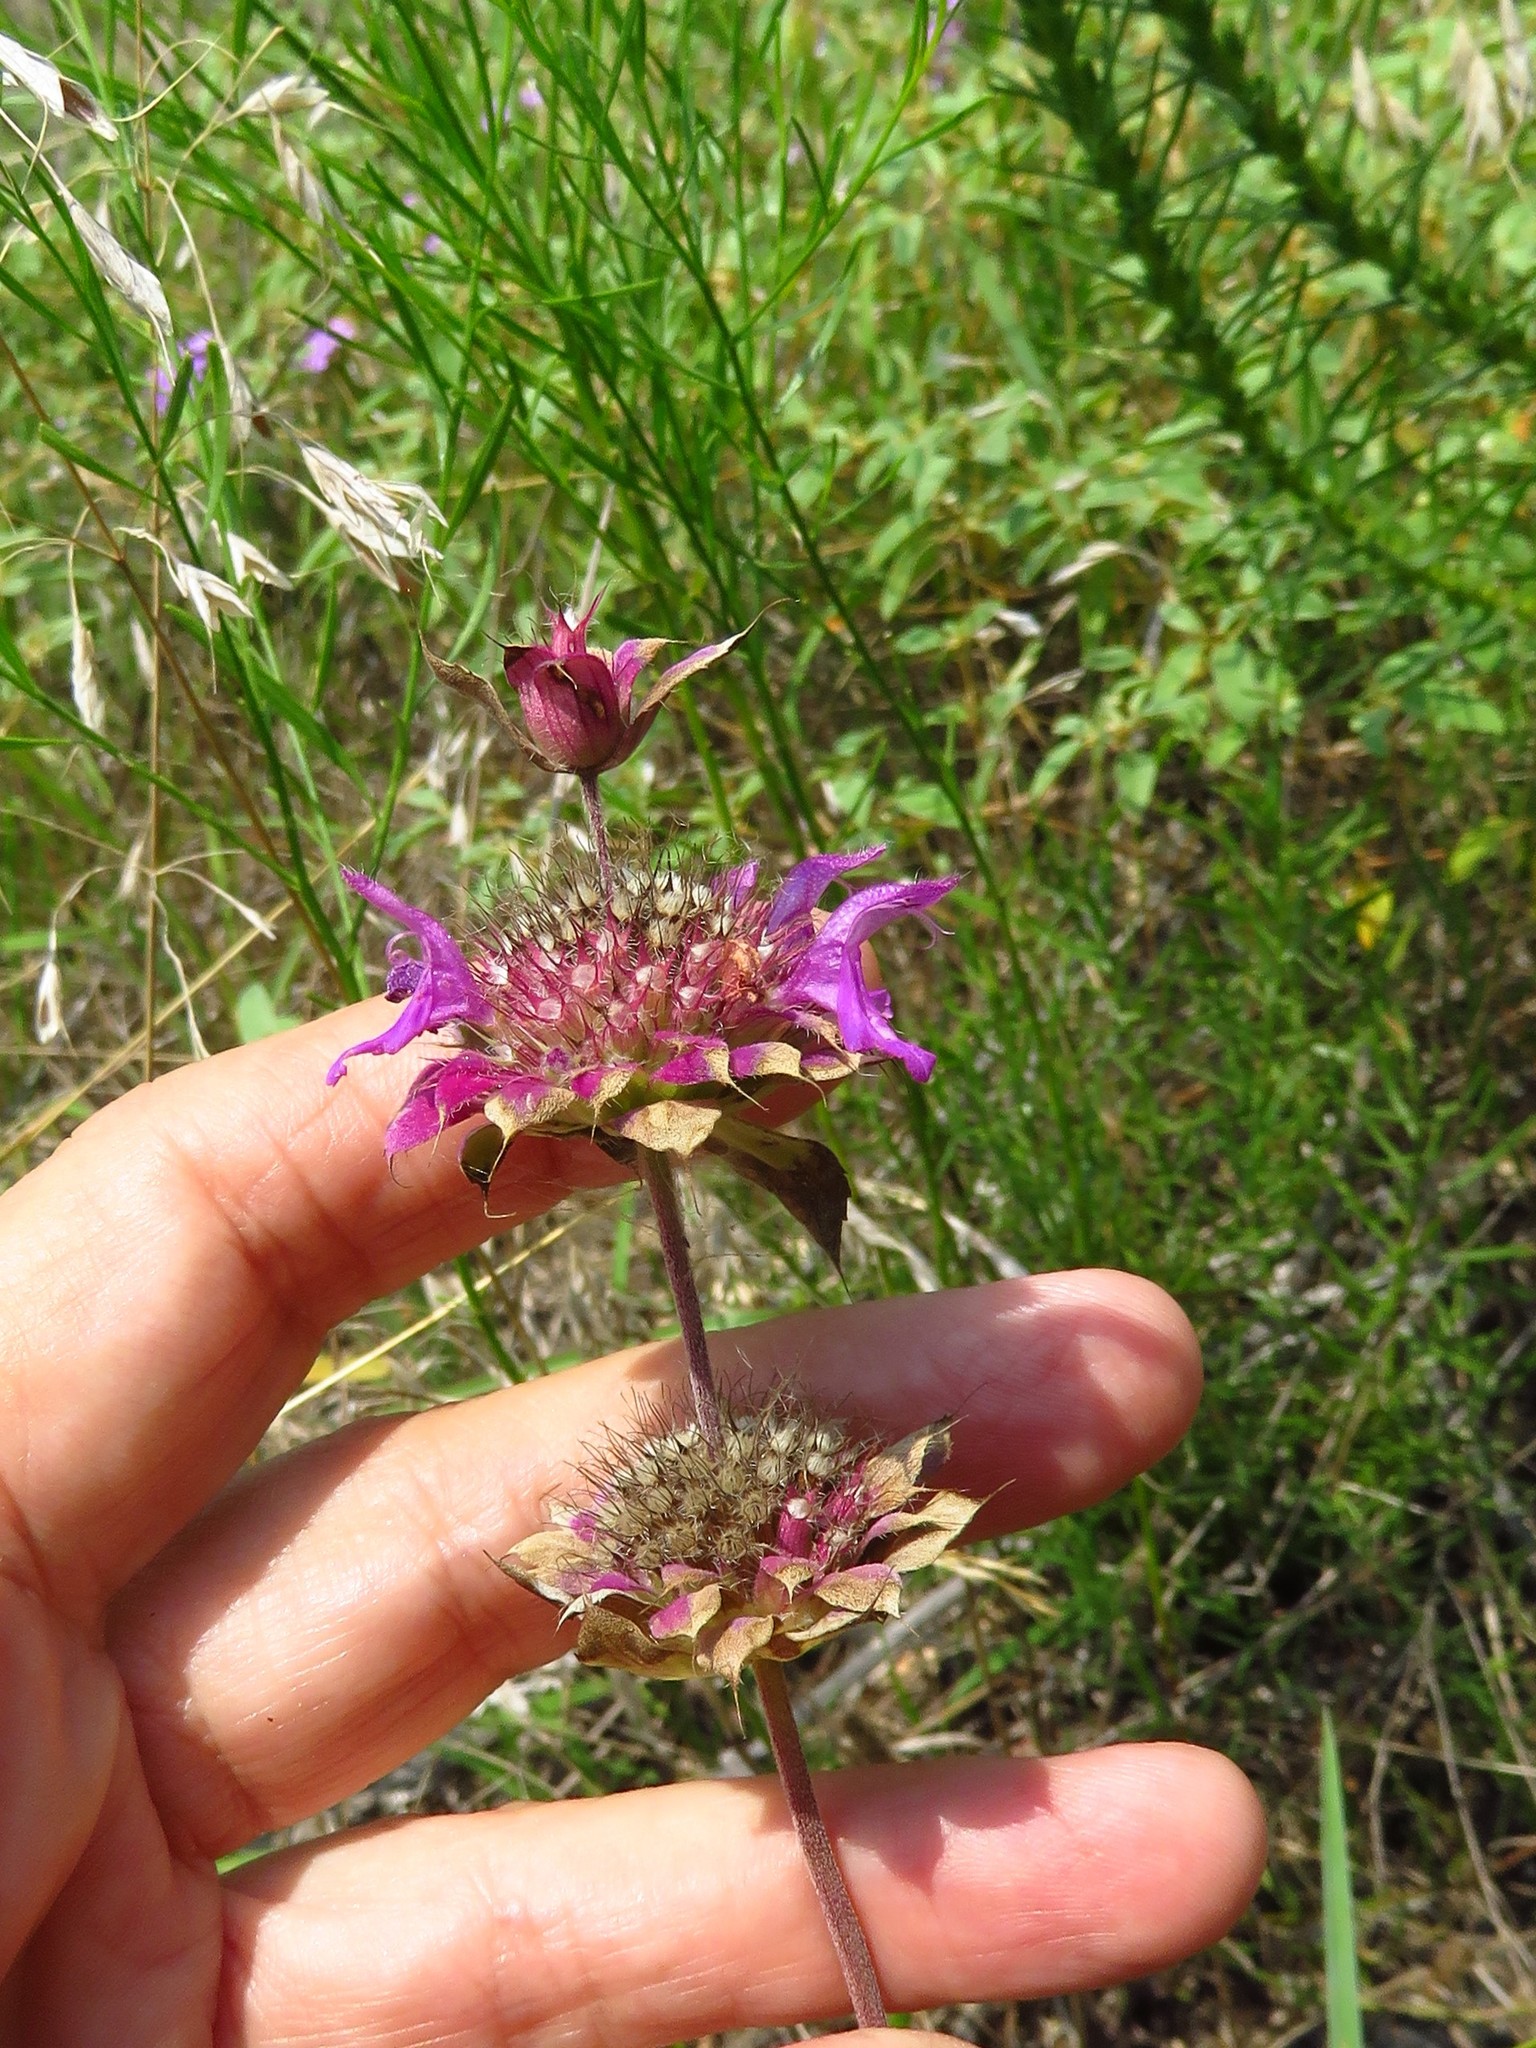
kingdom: Plantae
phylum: Tracheophyta
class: Magnoliopsida
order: Lamiales
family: Lamiaceae
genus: Monarda
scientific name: Monarda citriodora
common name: Lemon beebalm
